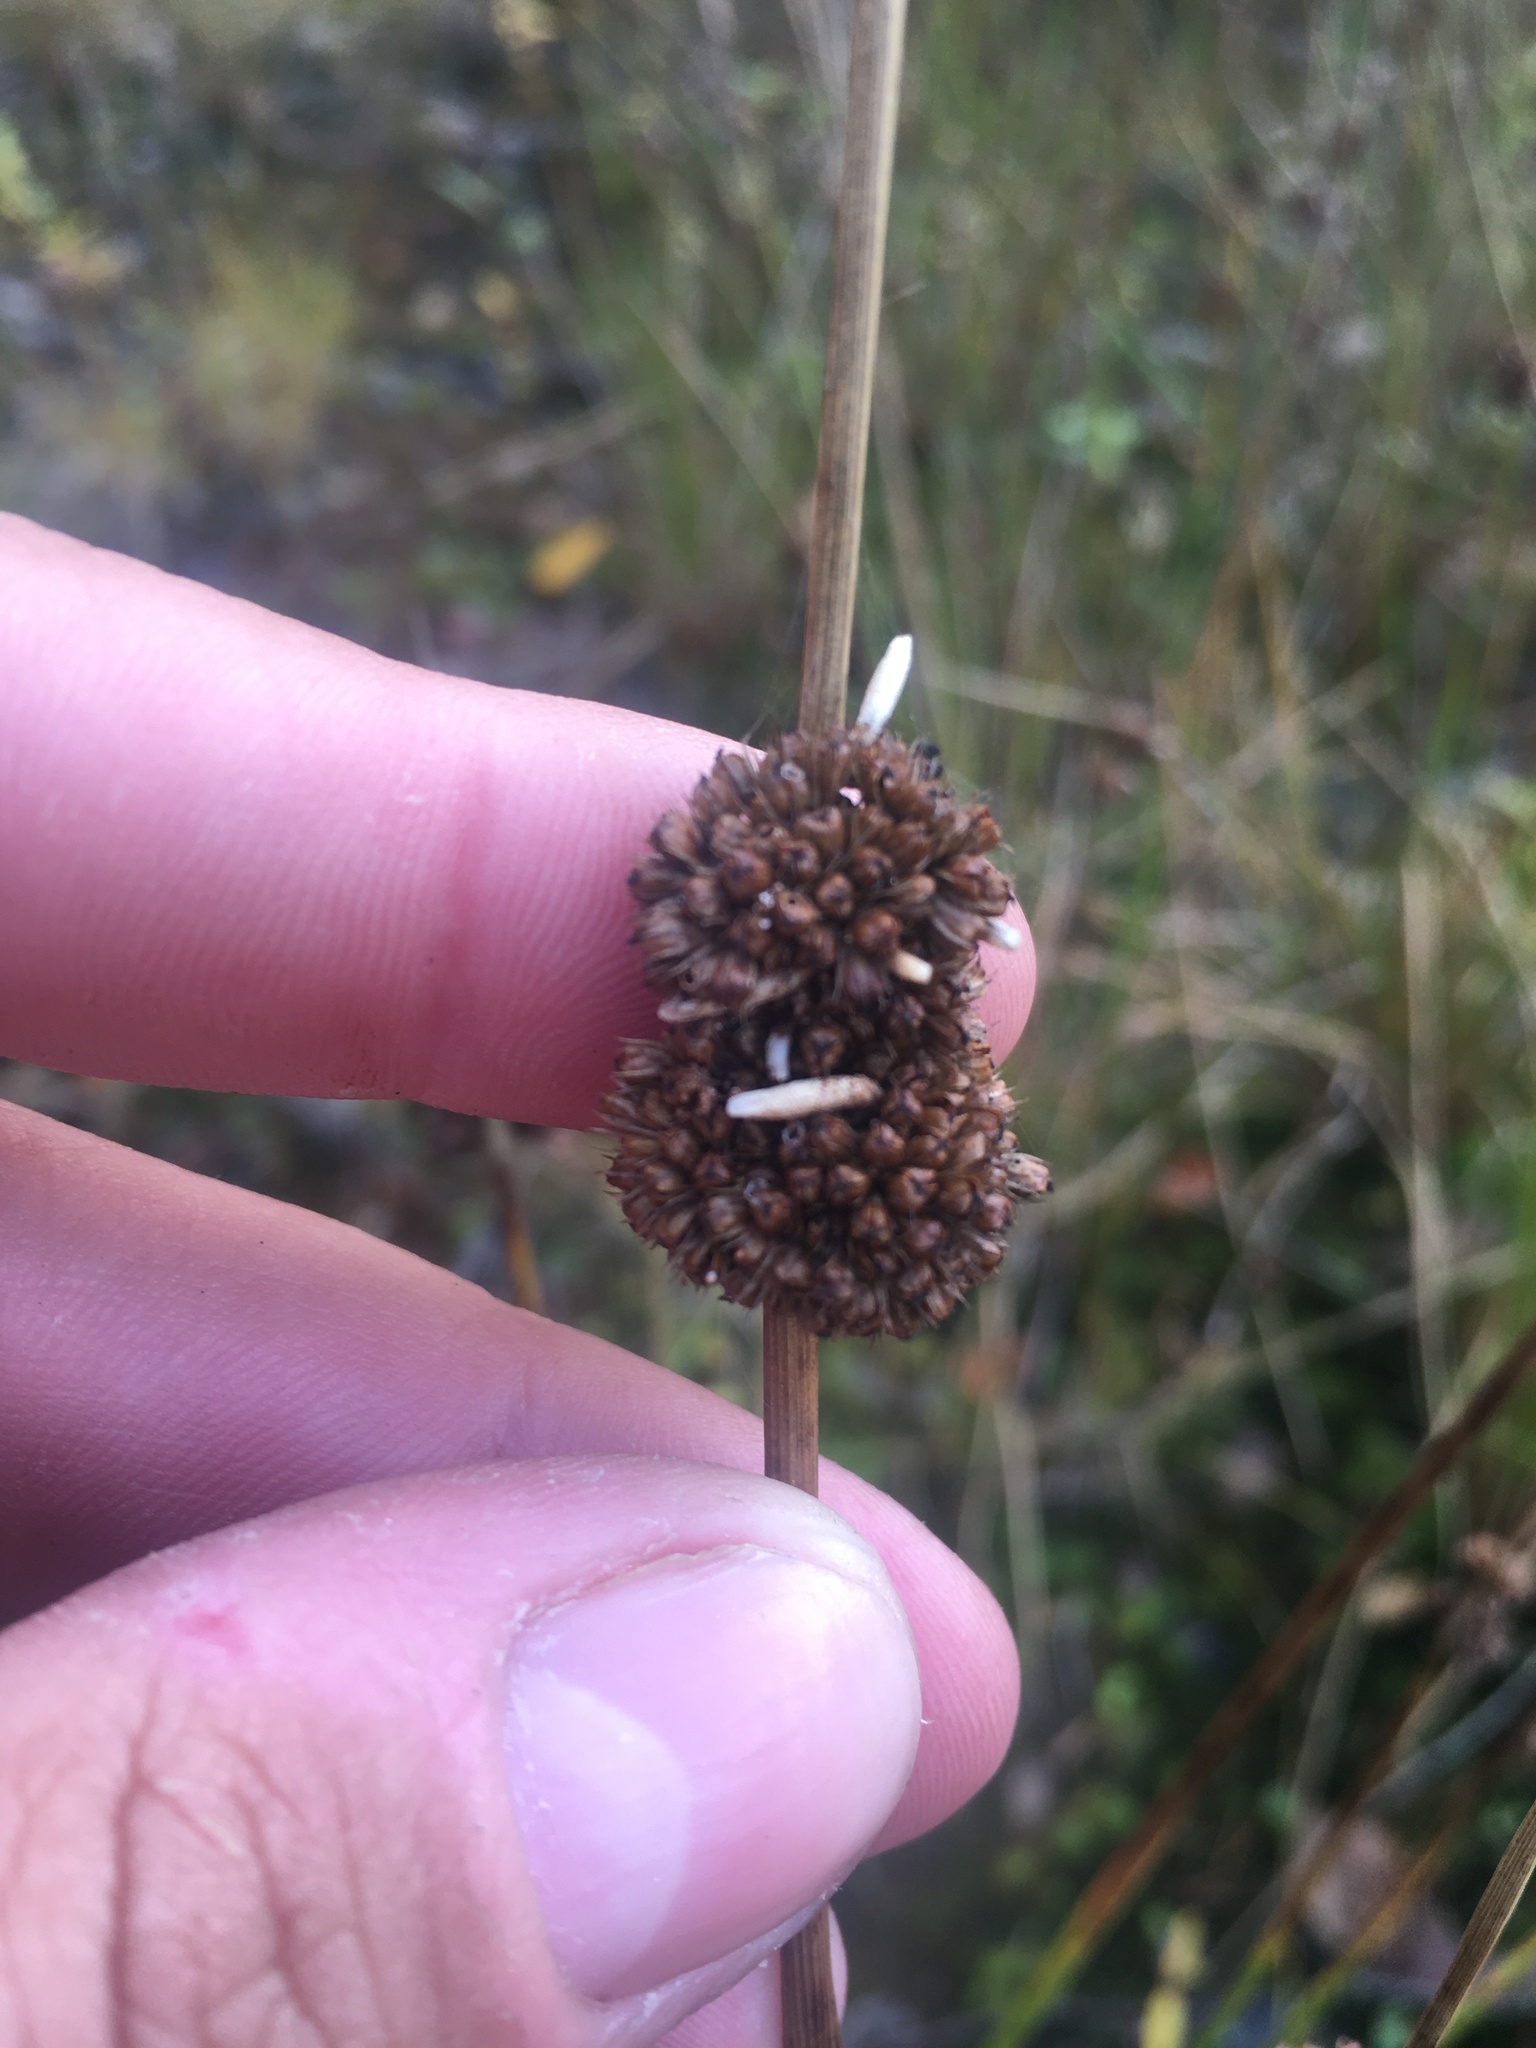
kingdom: Plantae
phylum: Tracheophyta
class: Liliopsida
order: Poales
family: Juncaceae
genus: Juncus
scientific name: Juncus conglomeratus
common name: Compact rush
